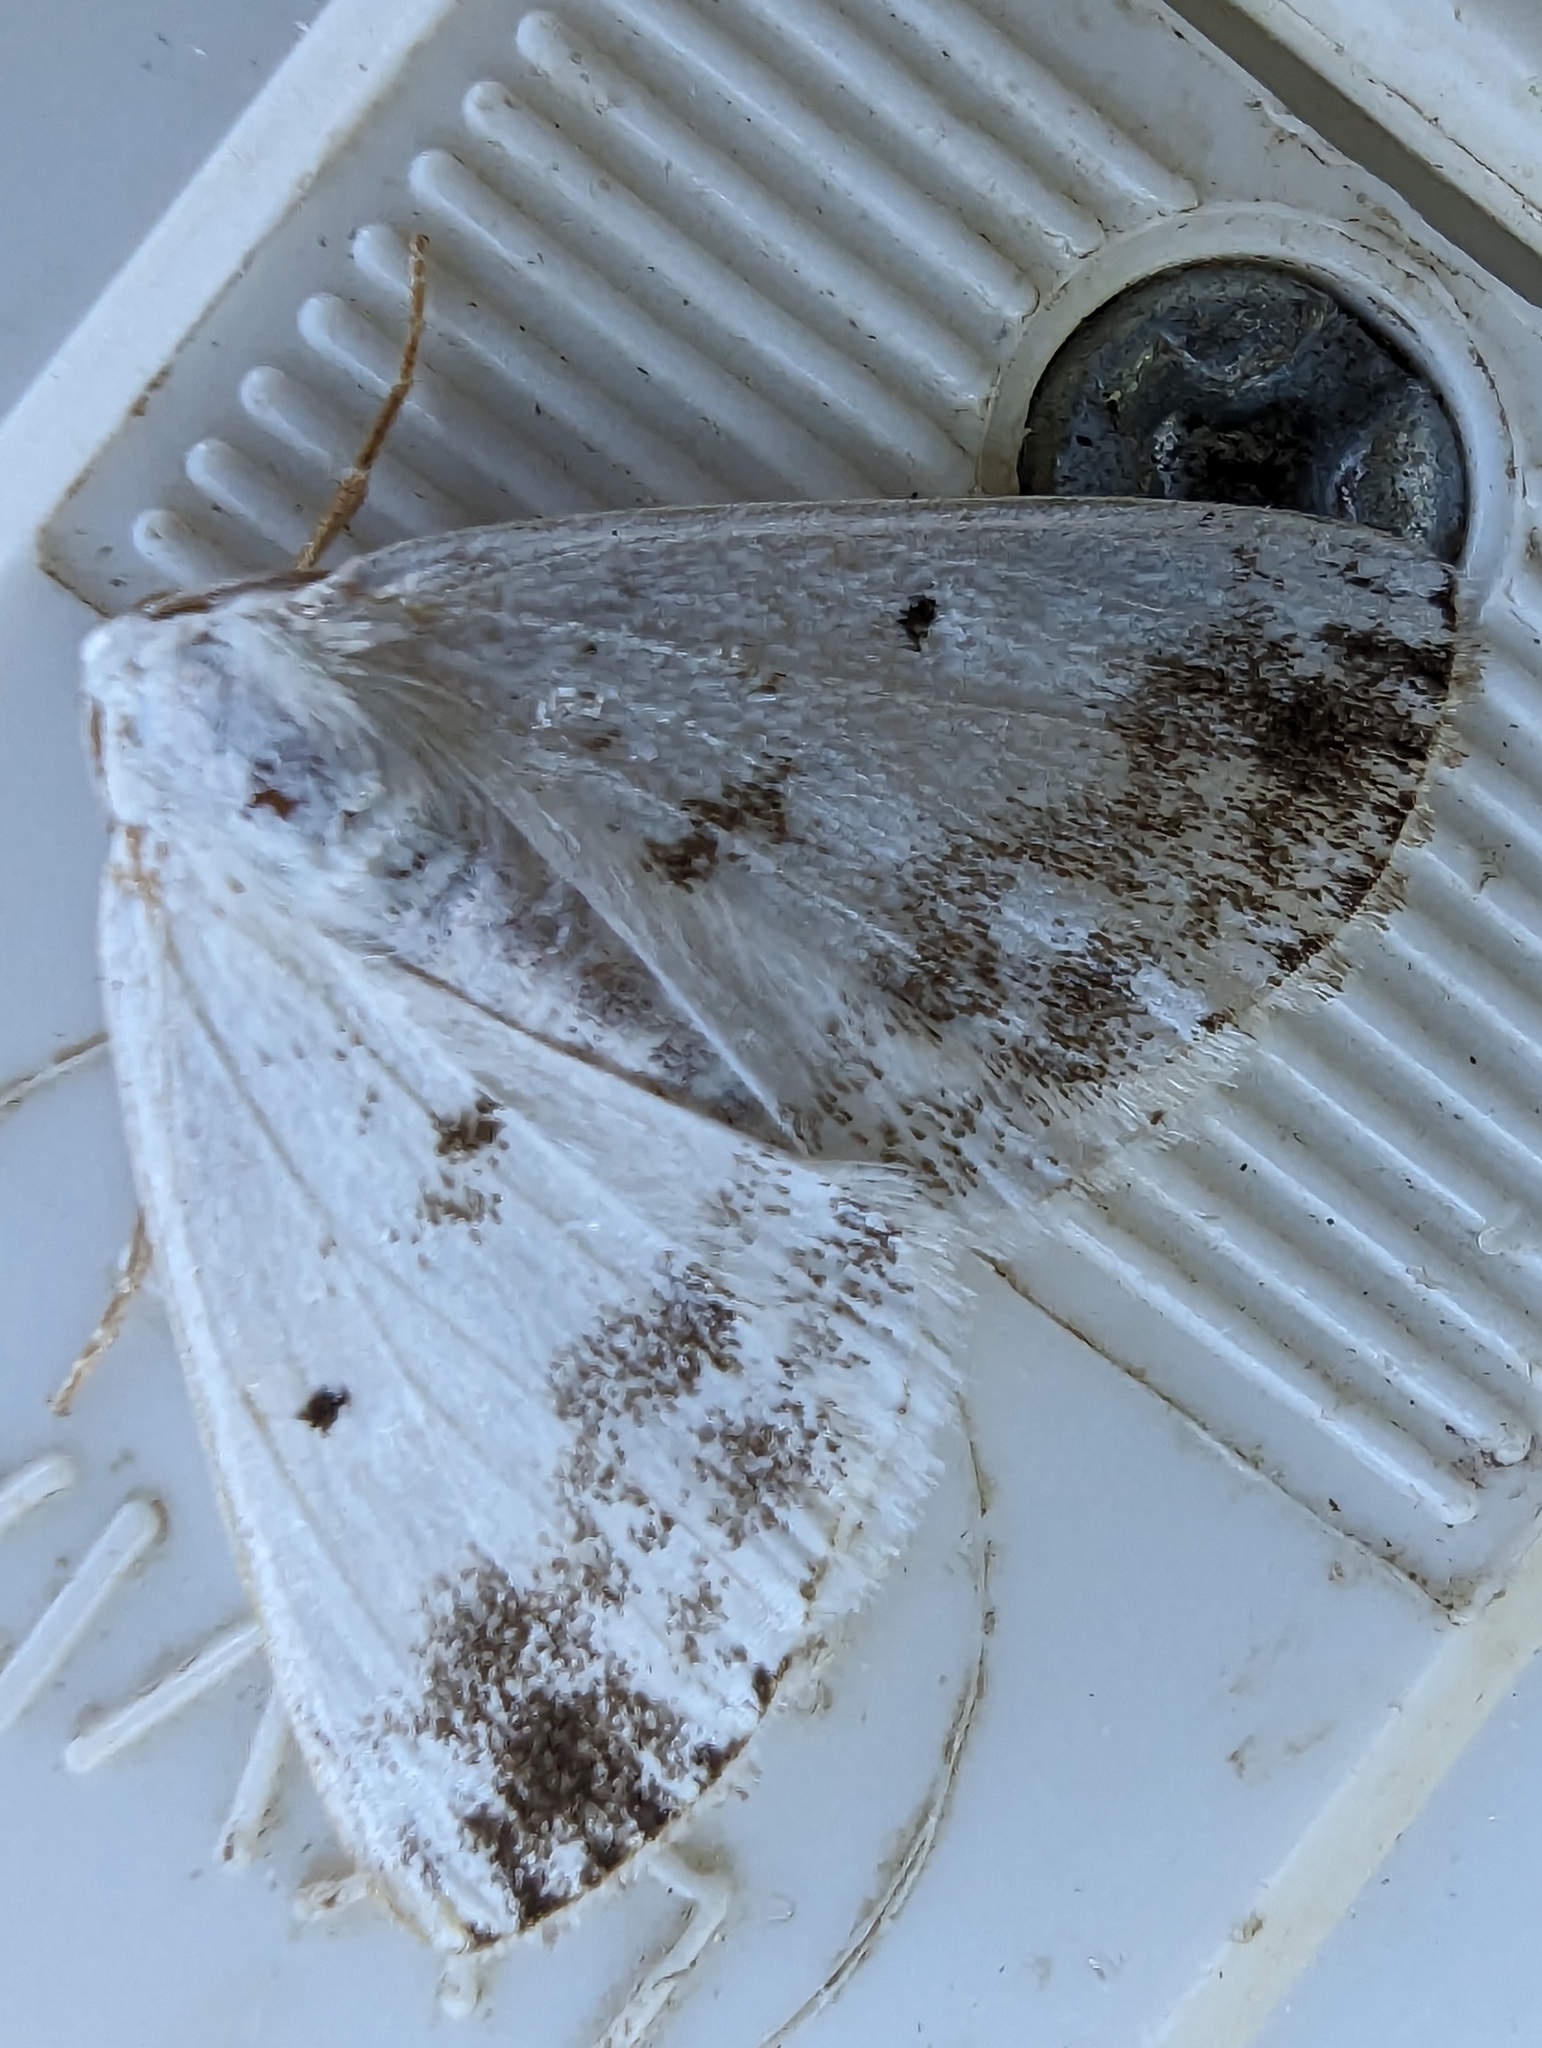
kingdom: Animalia
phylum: Arthropoda
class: Insecta
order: Lepidoptera
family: Geometridae
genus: Lomographa
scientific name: Lomographa temerata
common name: Clouded silver
